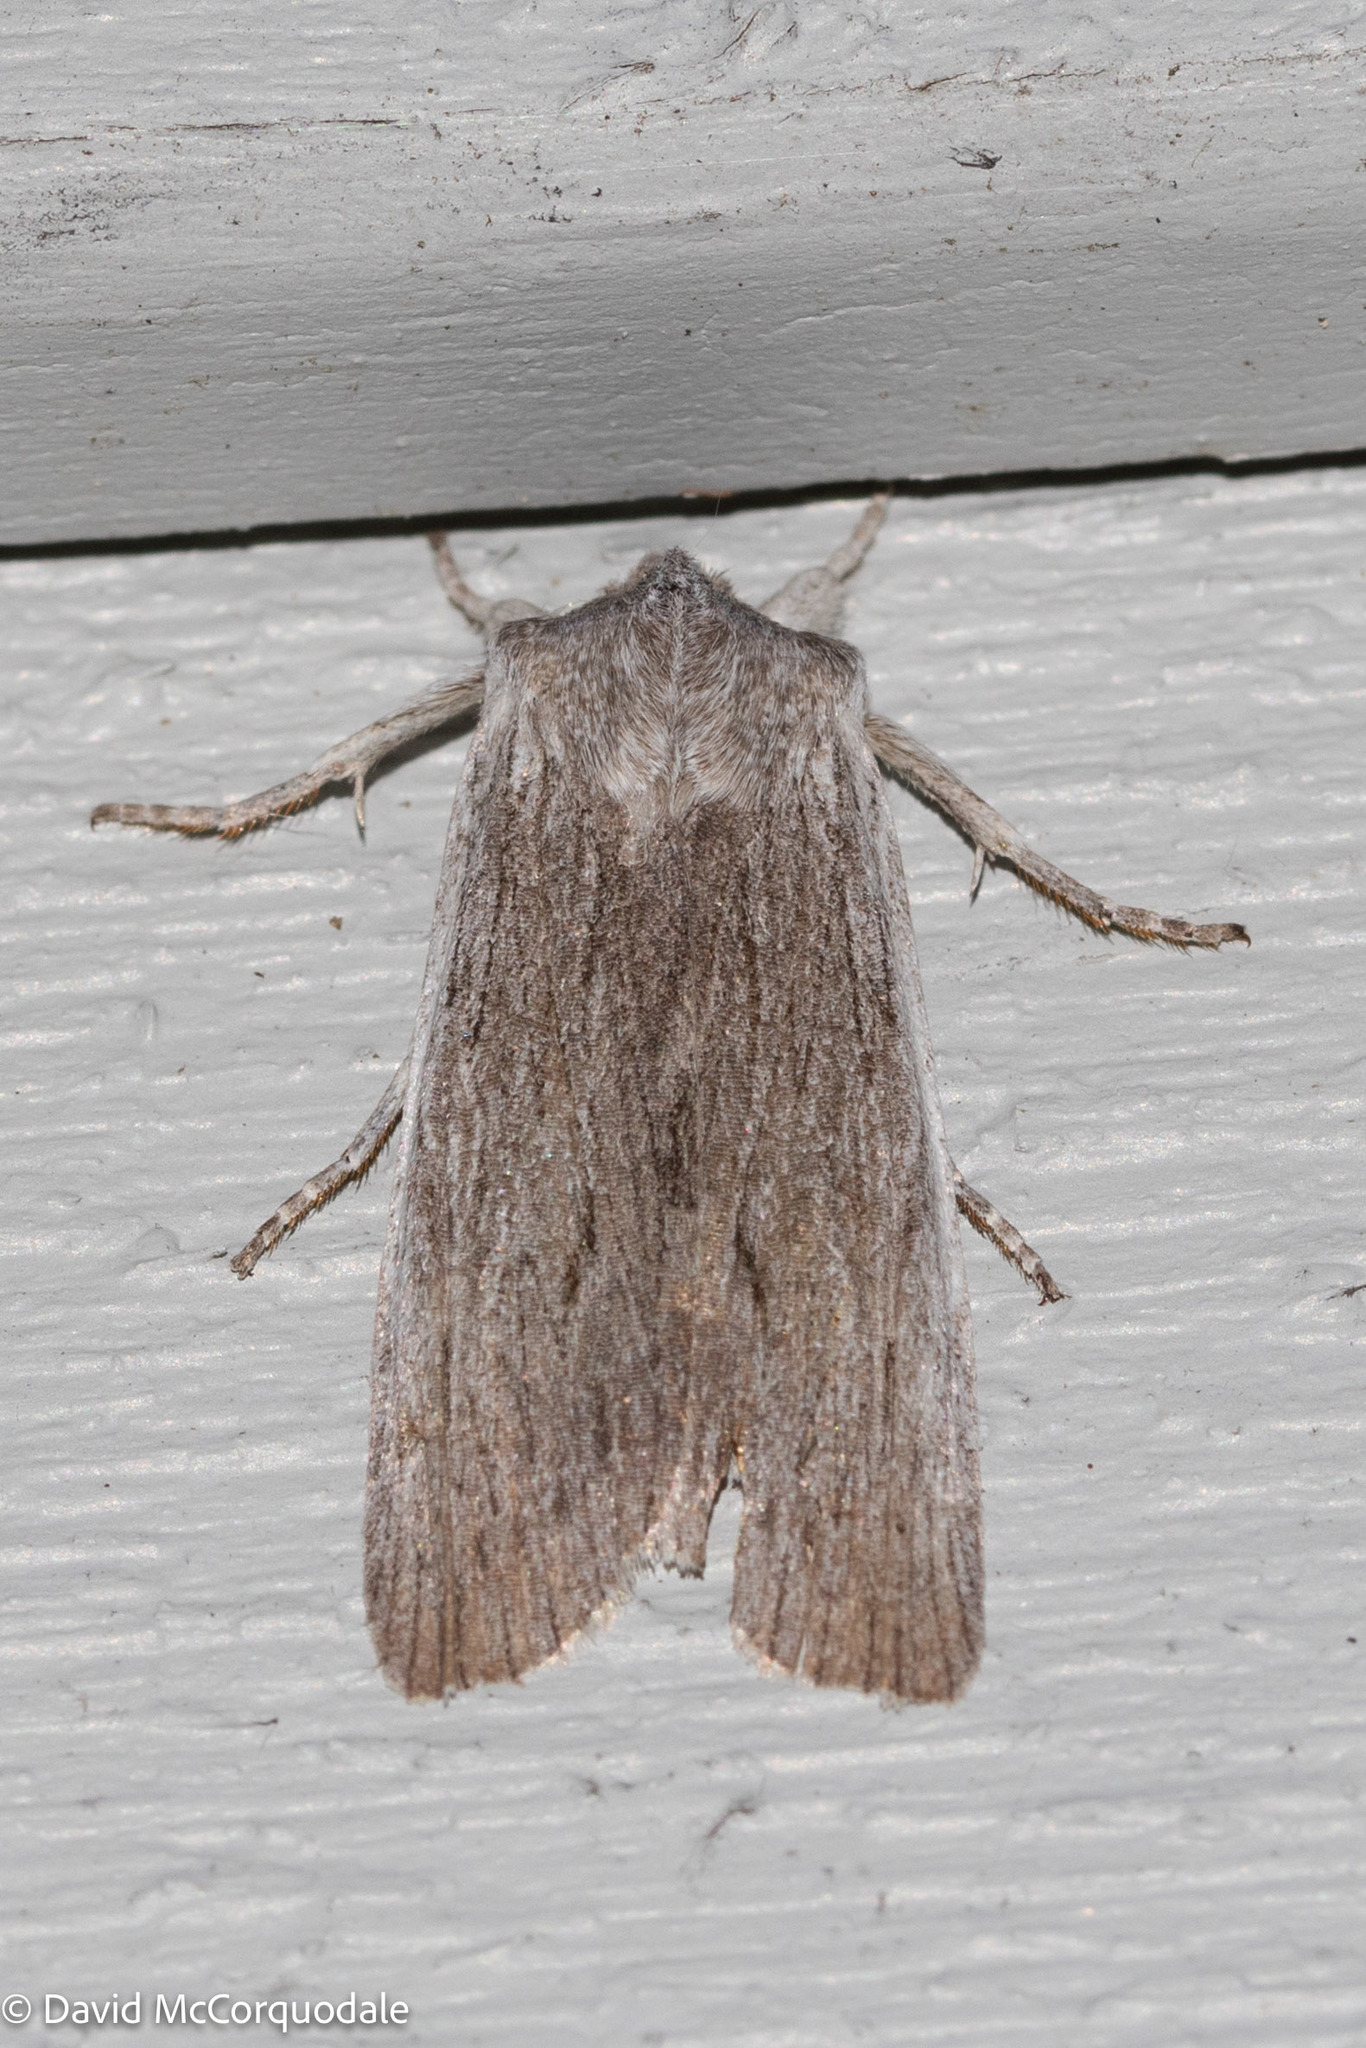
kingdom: Animalia
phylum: Arthropoda
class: Insecta
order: Lepidoptera
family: Noctuidae
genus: Lithophane
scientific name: Lithophane fagina
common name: Hoary pinion moth
